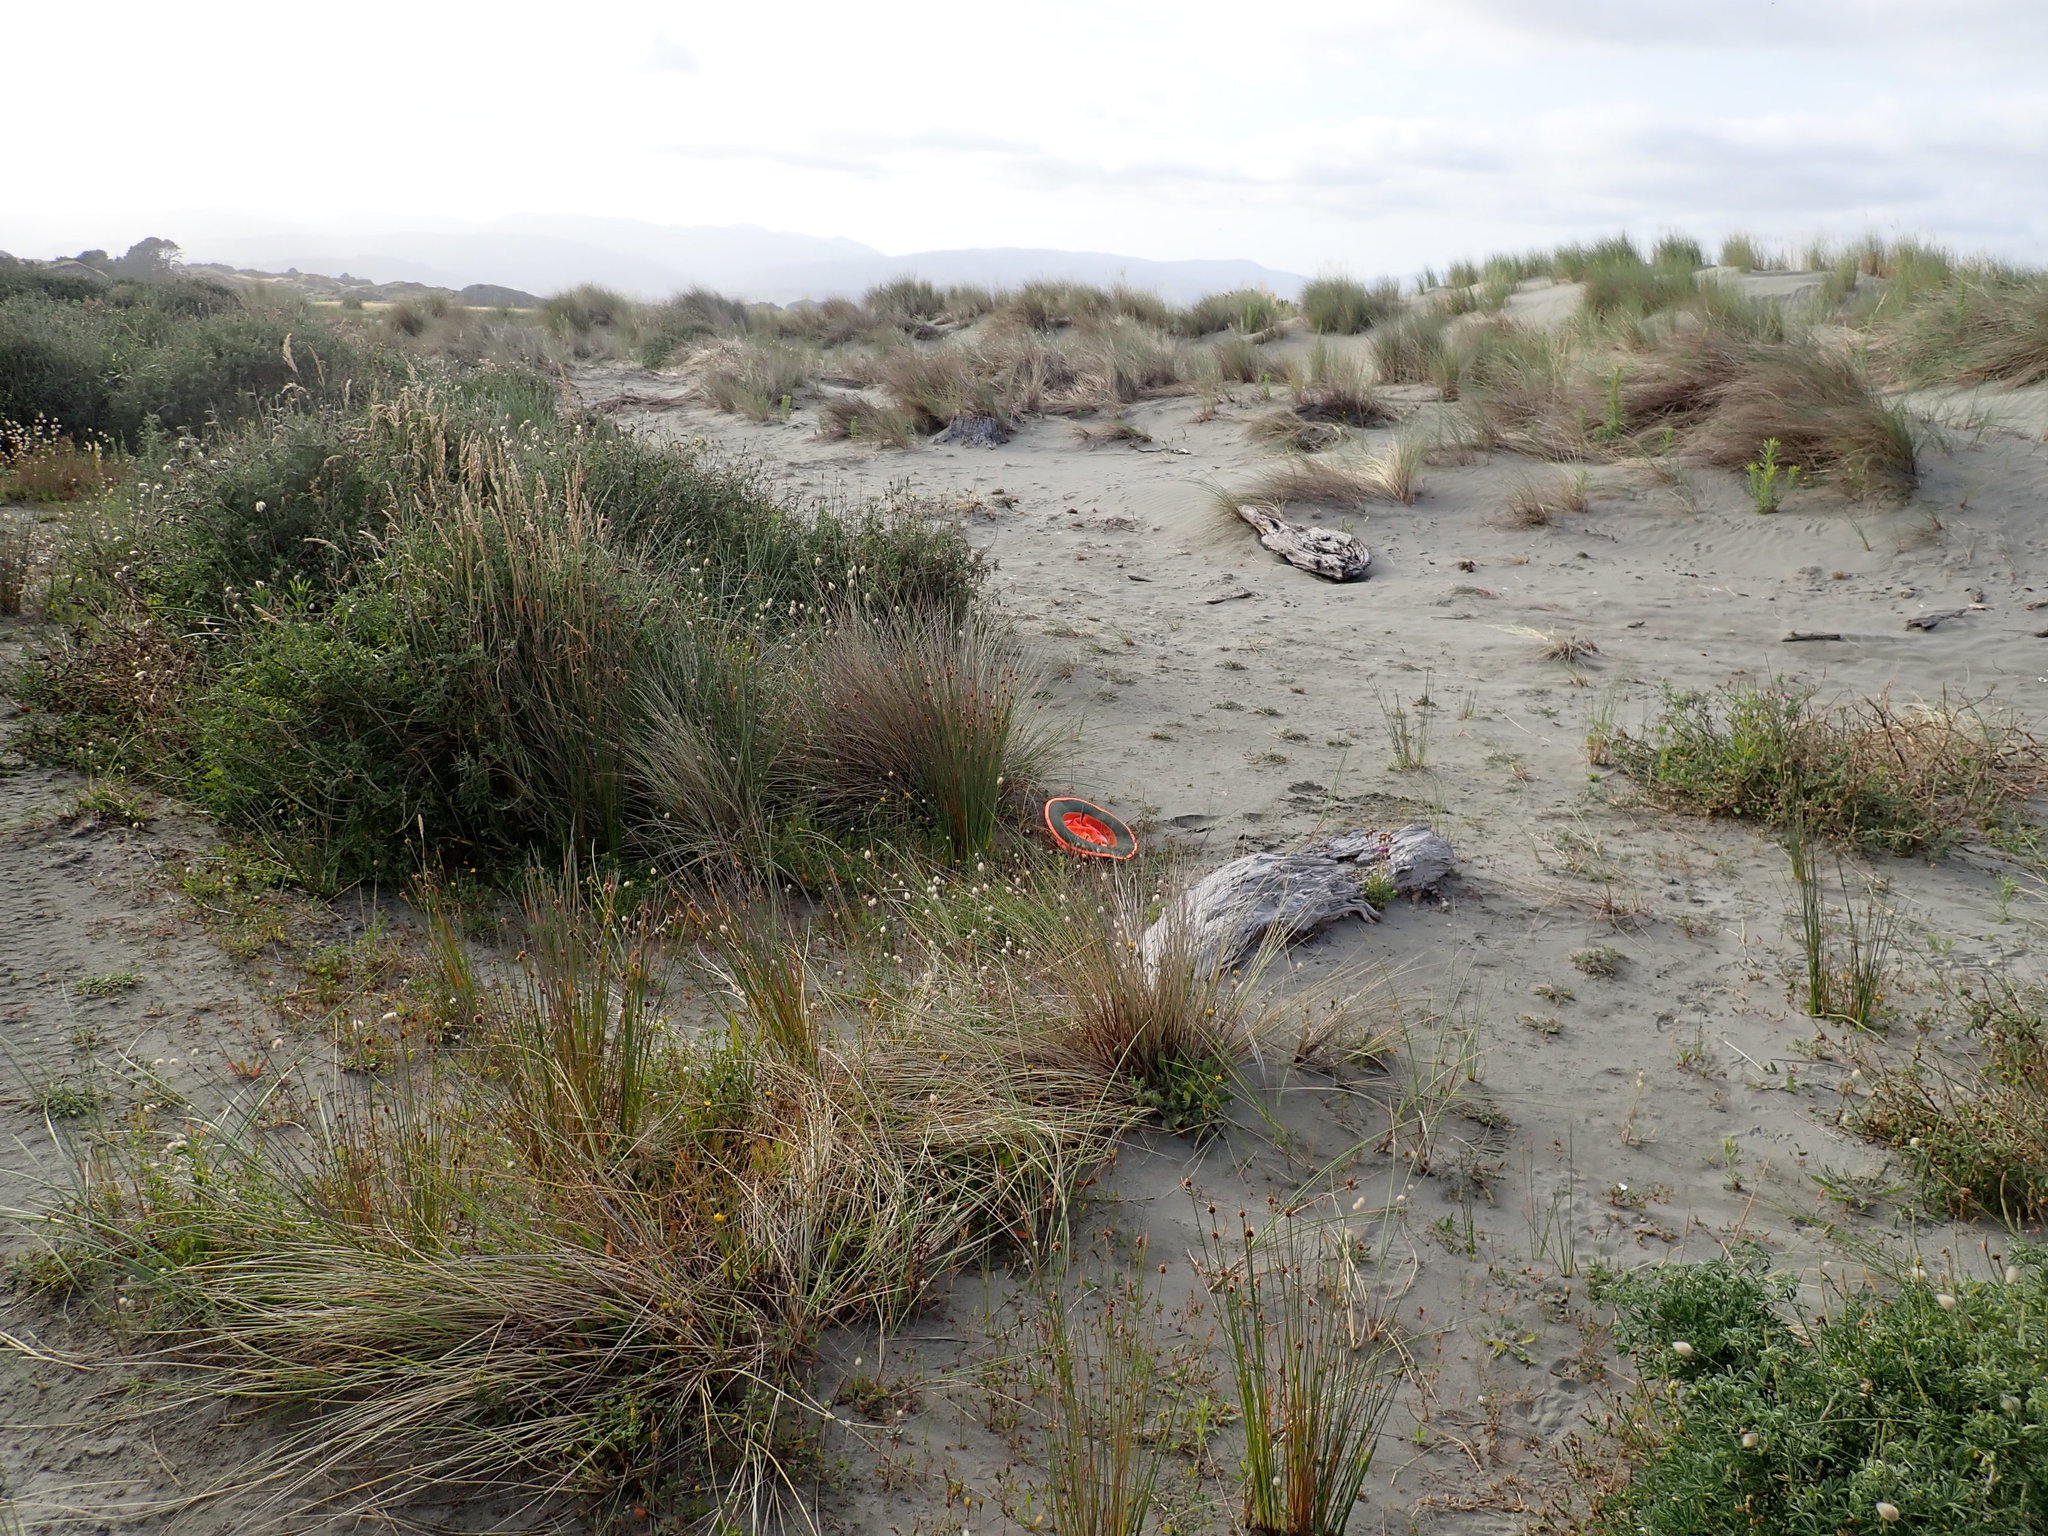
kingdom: Plantae
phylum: Tracheophyta
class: Liliopsida
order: Poales
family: Cyperaceae
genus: Ficinia
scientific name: Ficinia nodosa
